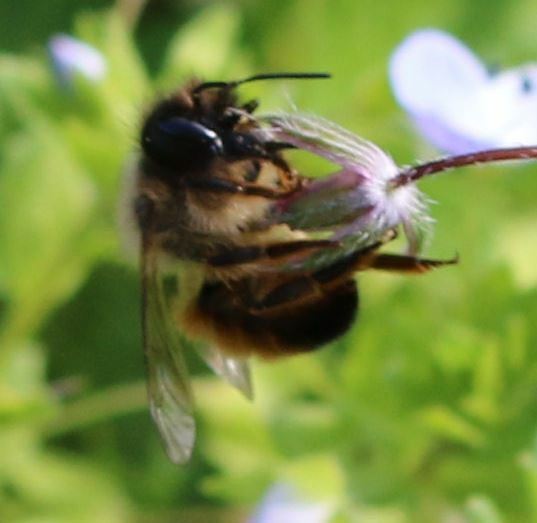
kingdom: Animalia
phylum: Arthropoda
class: Insecta
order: Hymenoptera
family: Megachilidae
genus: Osmia
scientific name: Osmia bicornis
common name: Red mason bee
